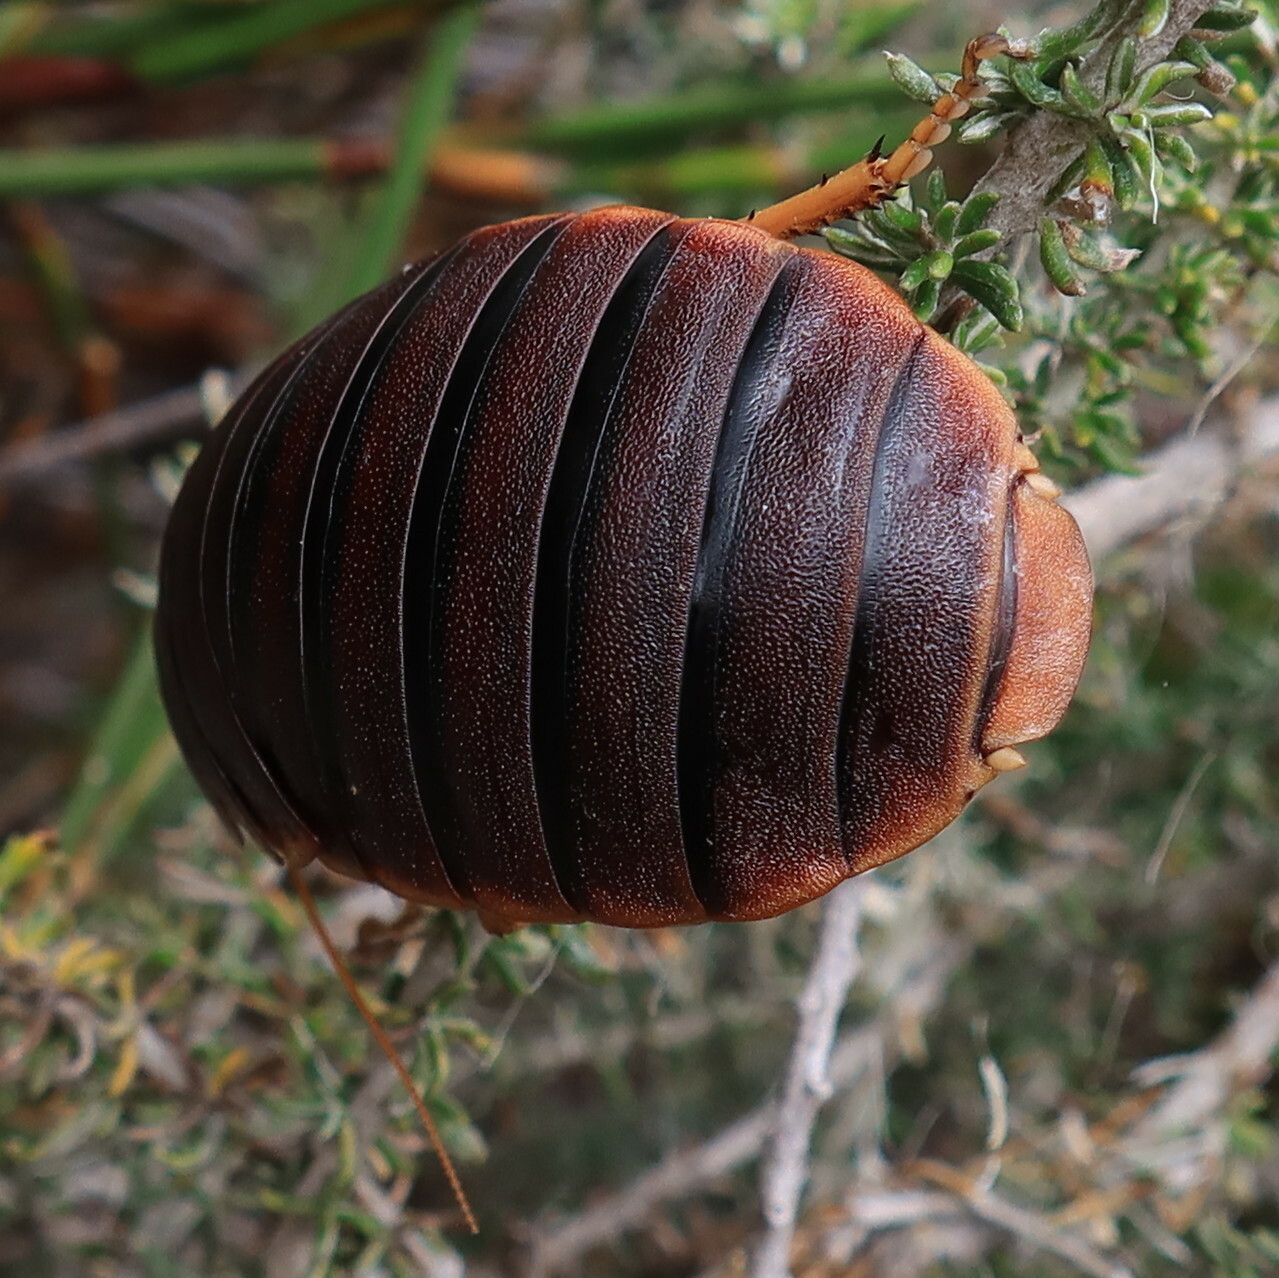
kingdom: Animalia
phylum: Arthropoda
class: Insecta
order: Blattodea
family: Blaberidae
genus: Aptera
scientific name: Aptera fusca
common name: Cape mountain cockroach
